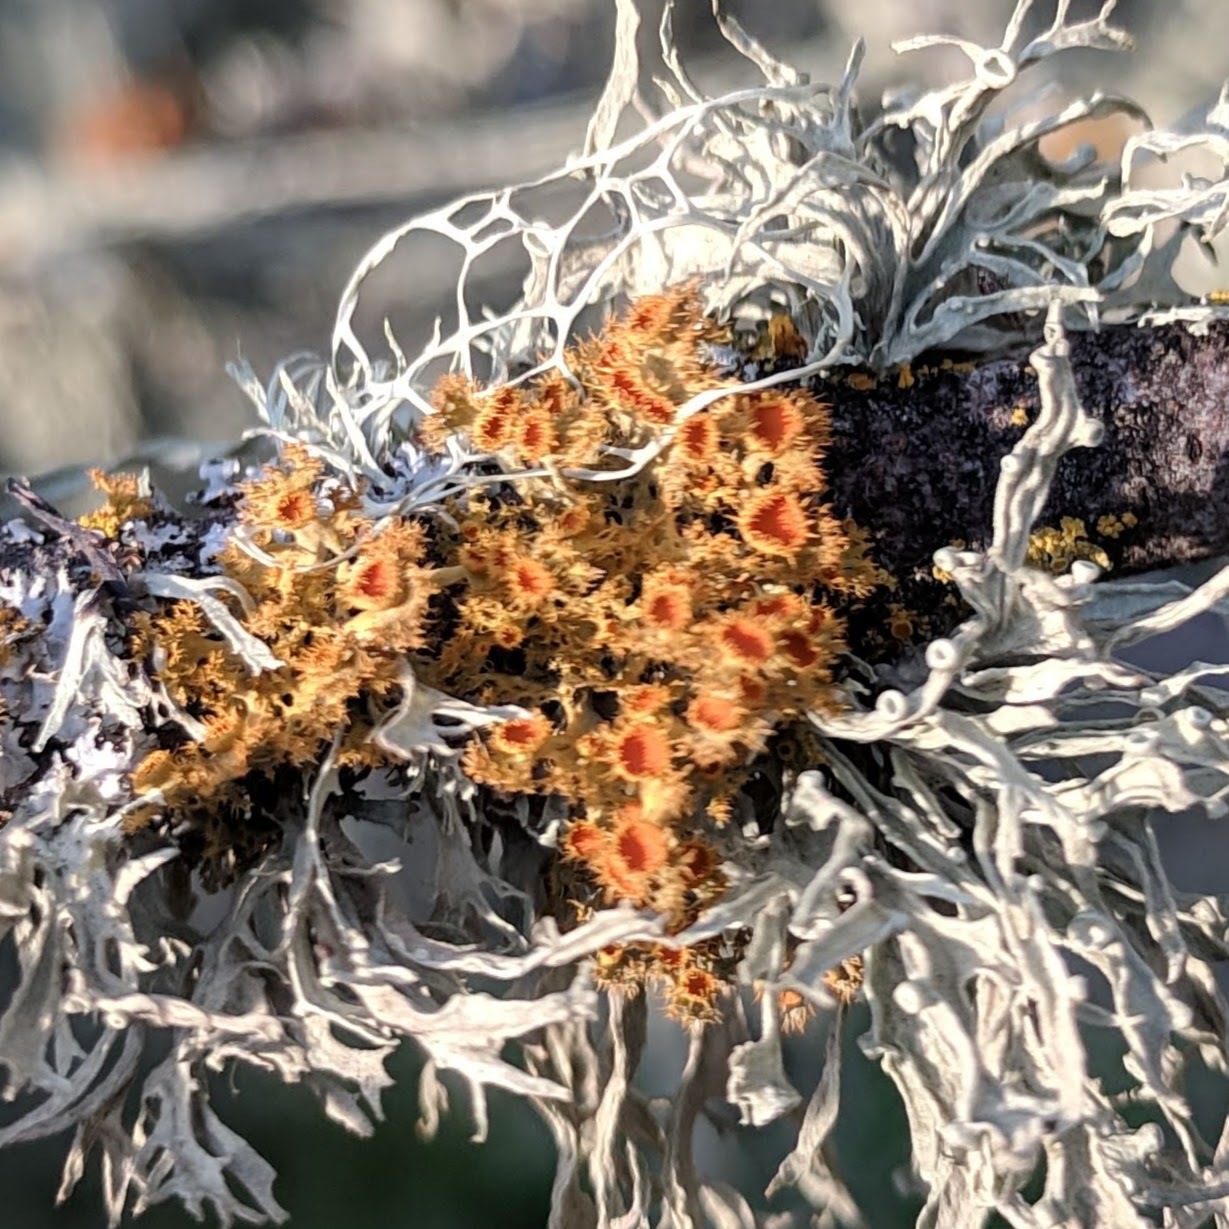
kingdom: Fungi
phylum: Ascomycota
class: Lecanoromycetes
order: Teloschistales
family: Teloschistaceae
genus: Niorma
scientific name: Niorma chrysophthalma
